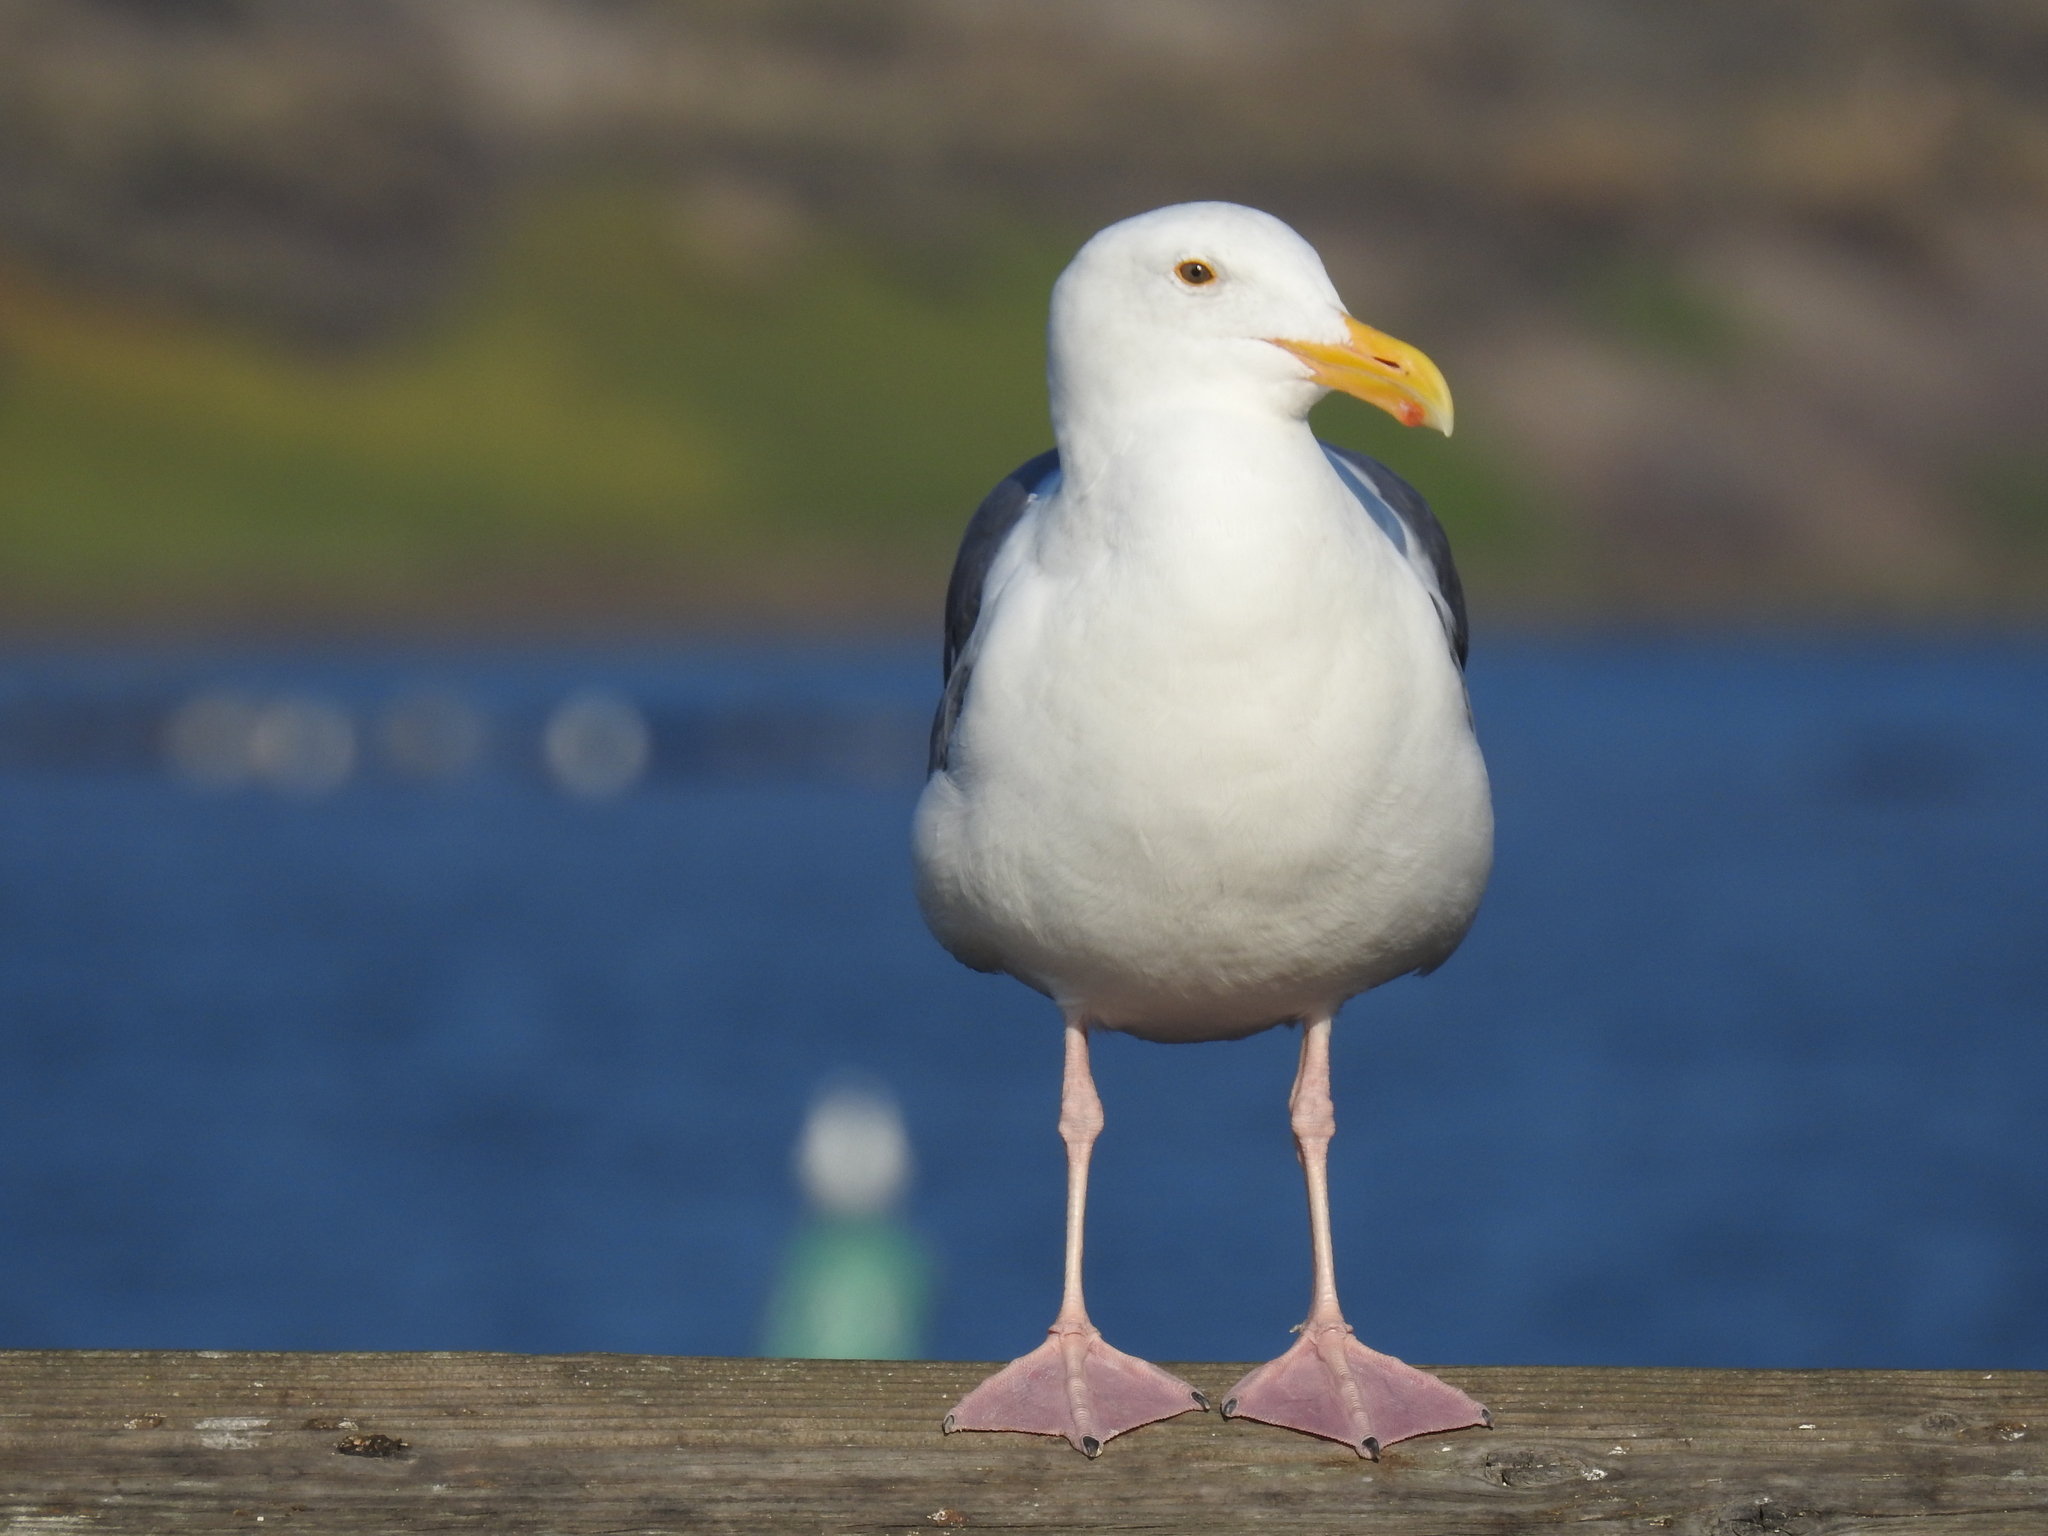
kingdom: Animalia
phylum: Chordata
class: Aves
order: Charadriiformes
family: Laridae
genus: Larus
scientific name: Larus occidentalis
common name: Western gull
